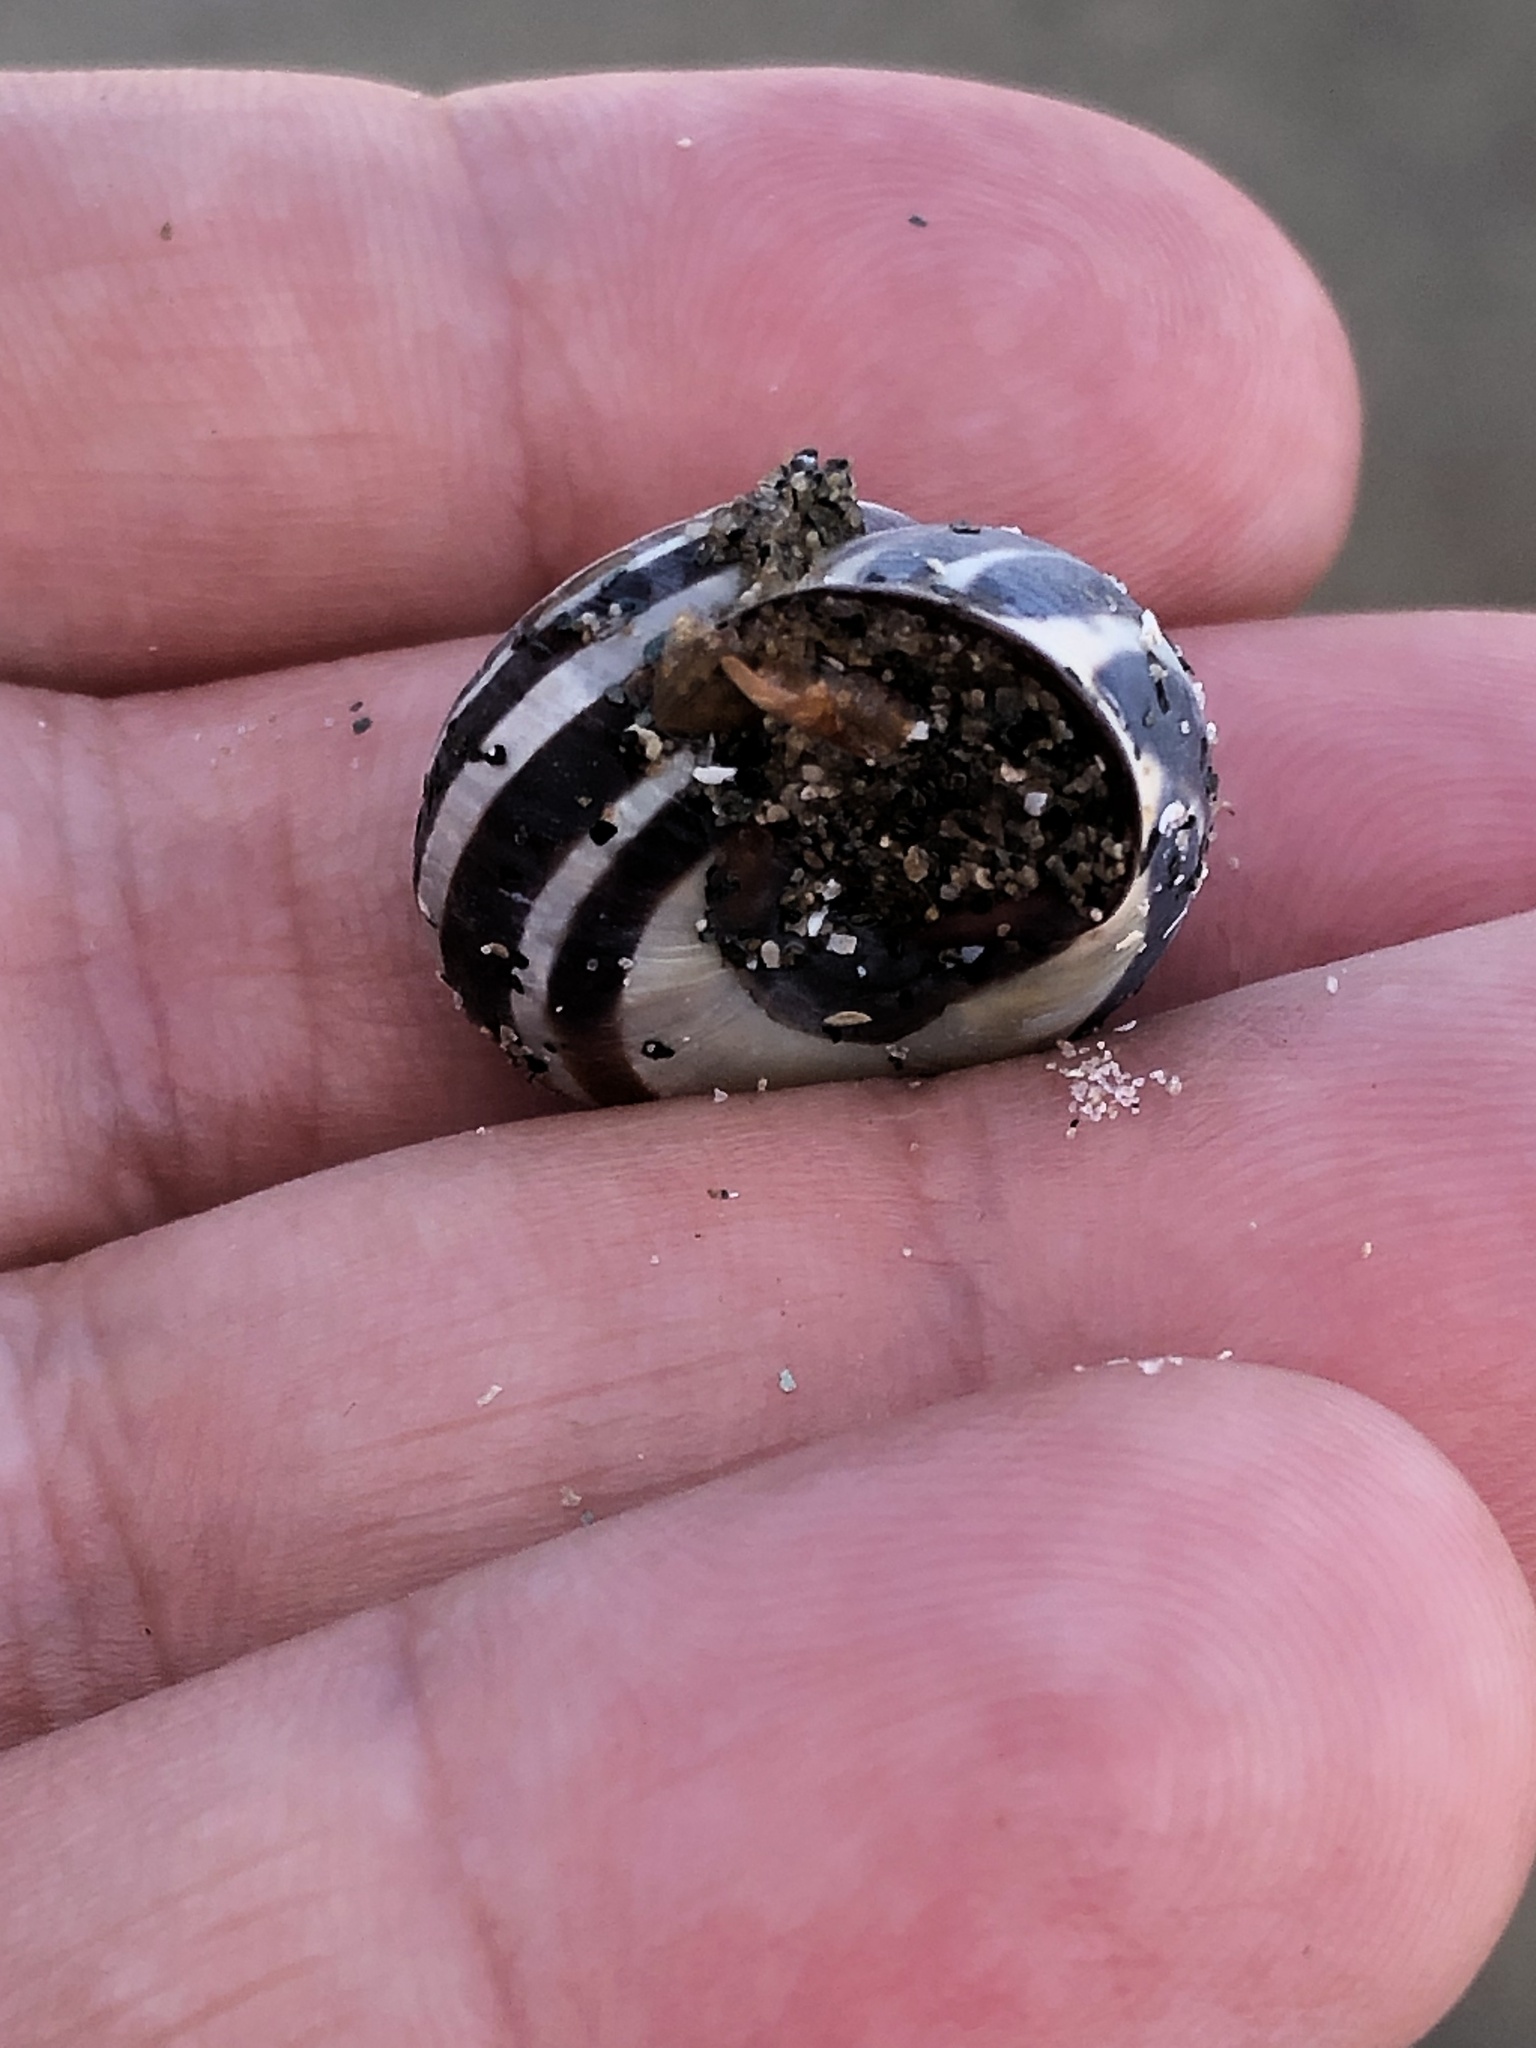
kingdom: Animalia
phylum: Mollusca
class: Gastropoda
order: Stylommatophora
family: Helicidae
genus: Cepaea
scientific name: Cepaea nemoralis
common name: Grovesnail
